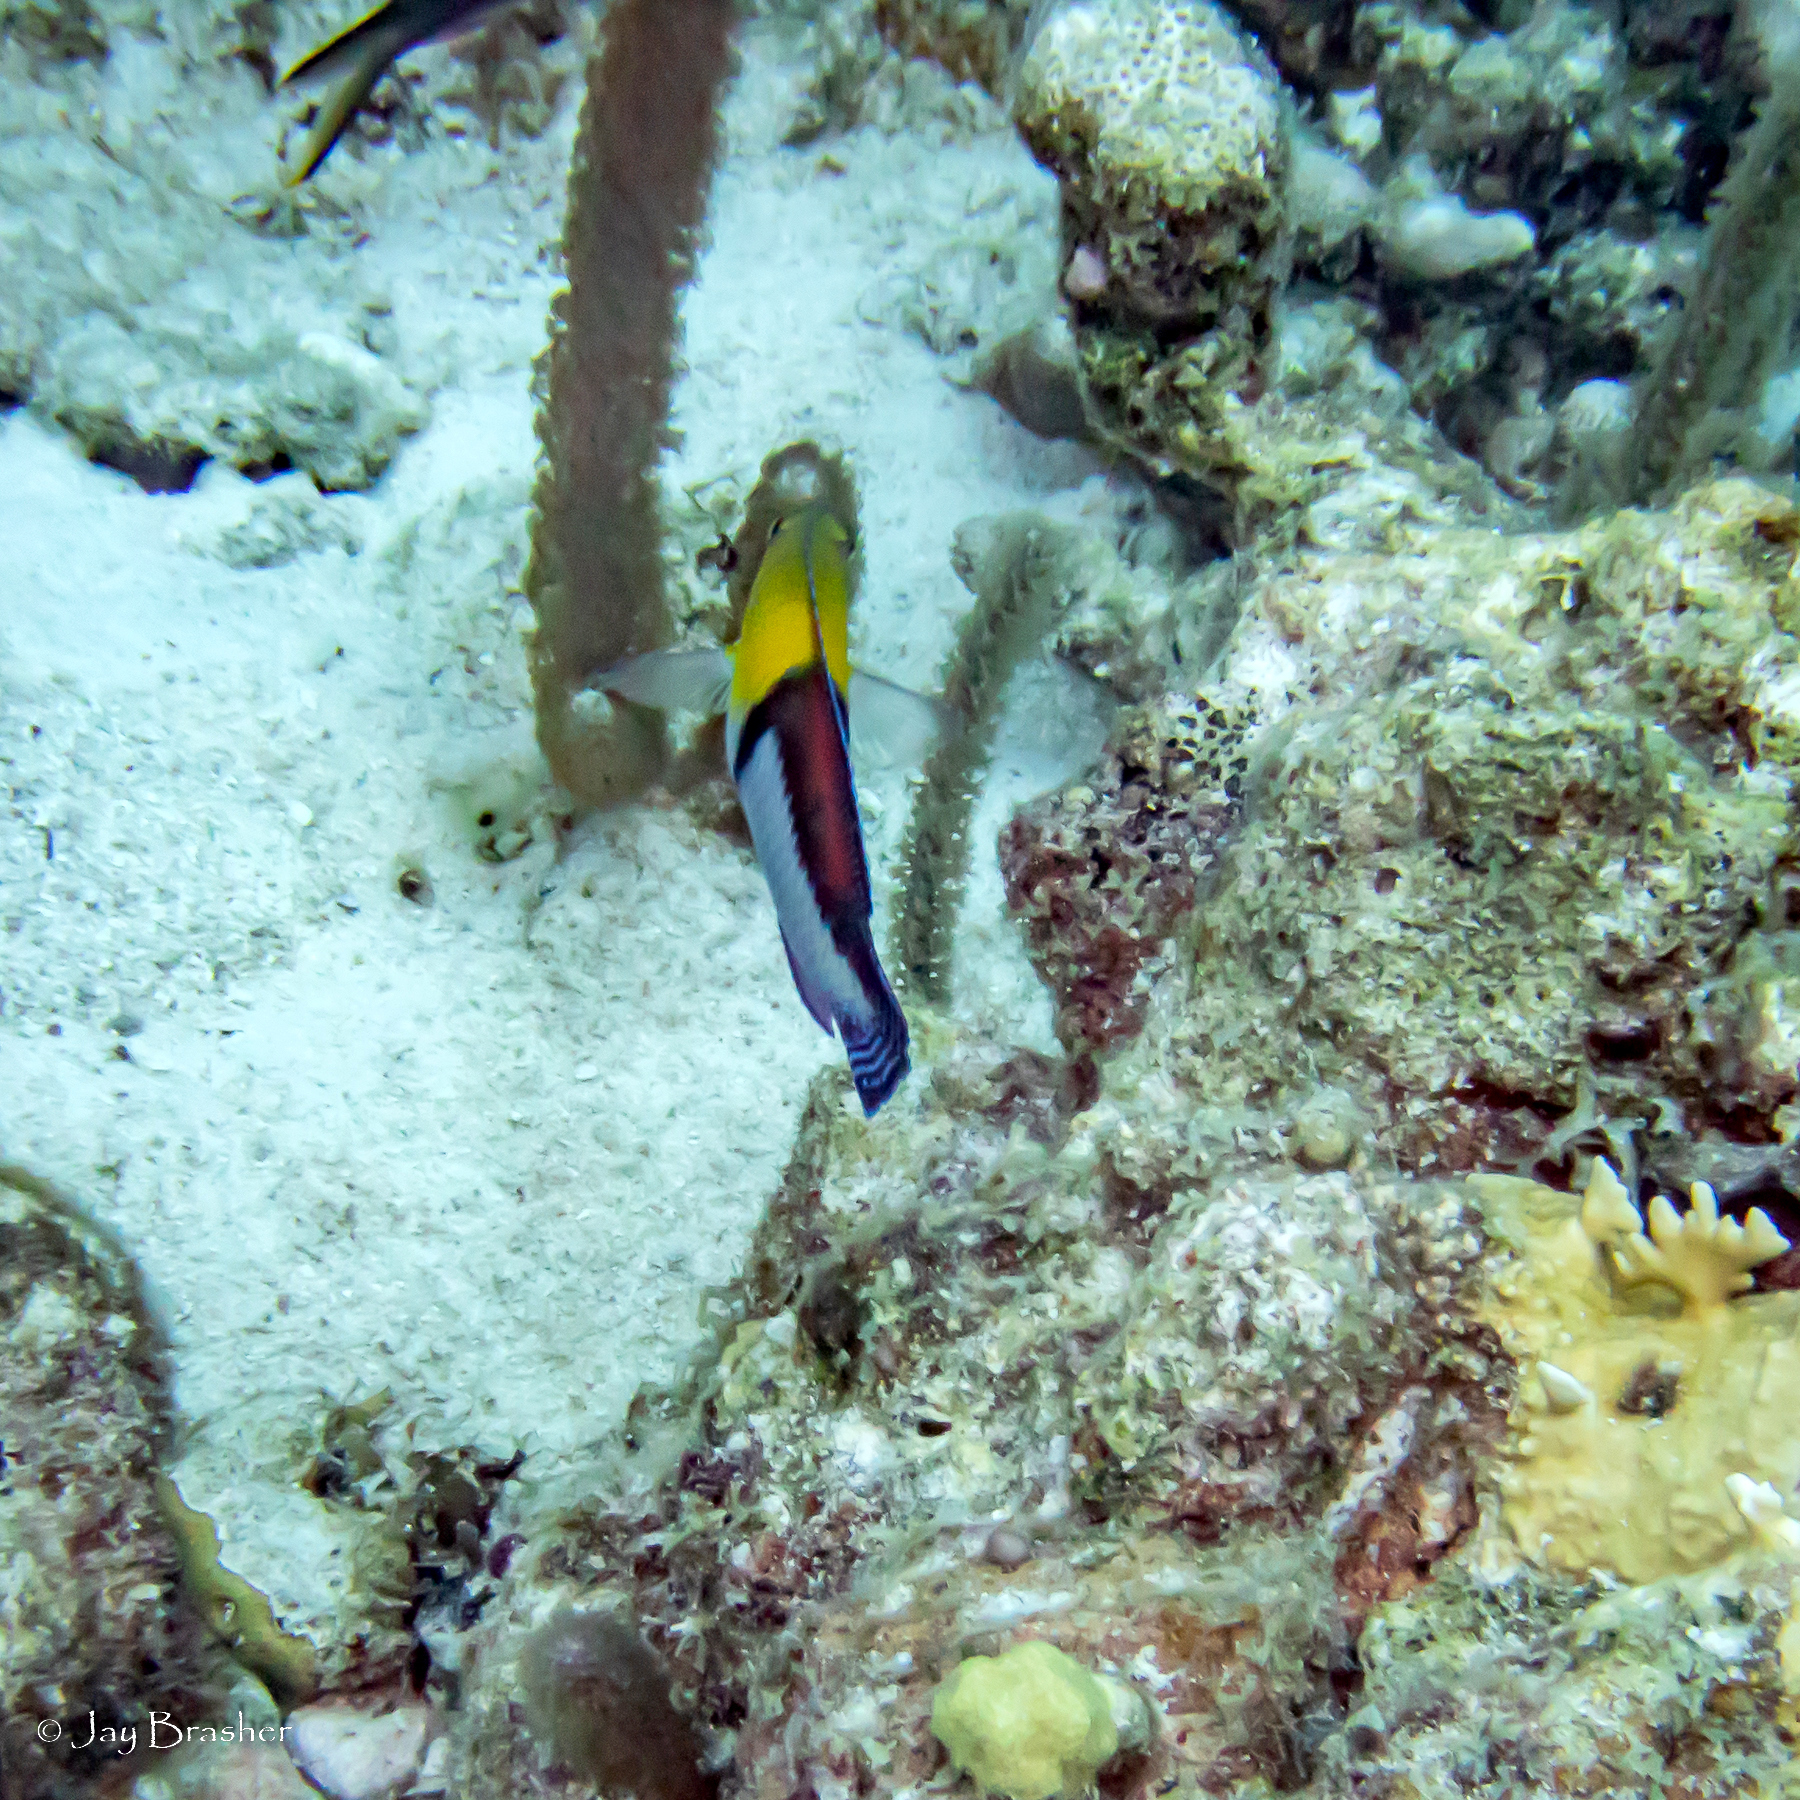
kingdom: Animalia
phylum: Chordata
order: Perciformes
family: Labridae
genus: Halichoeres
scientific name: Halichoeres garnoti
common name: Yellowhead wrasse
